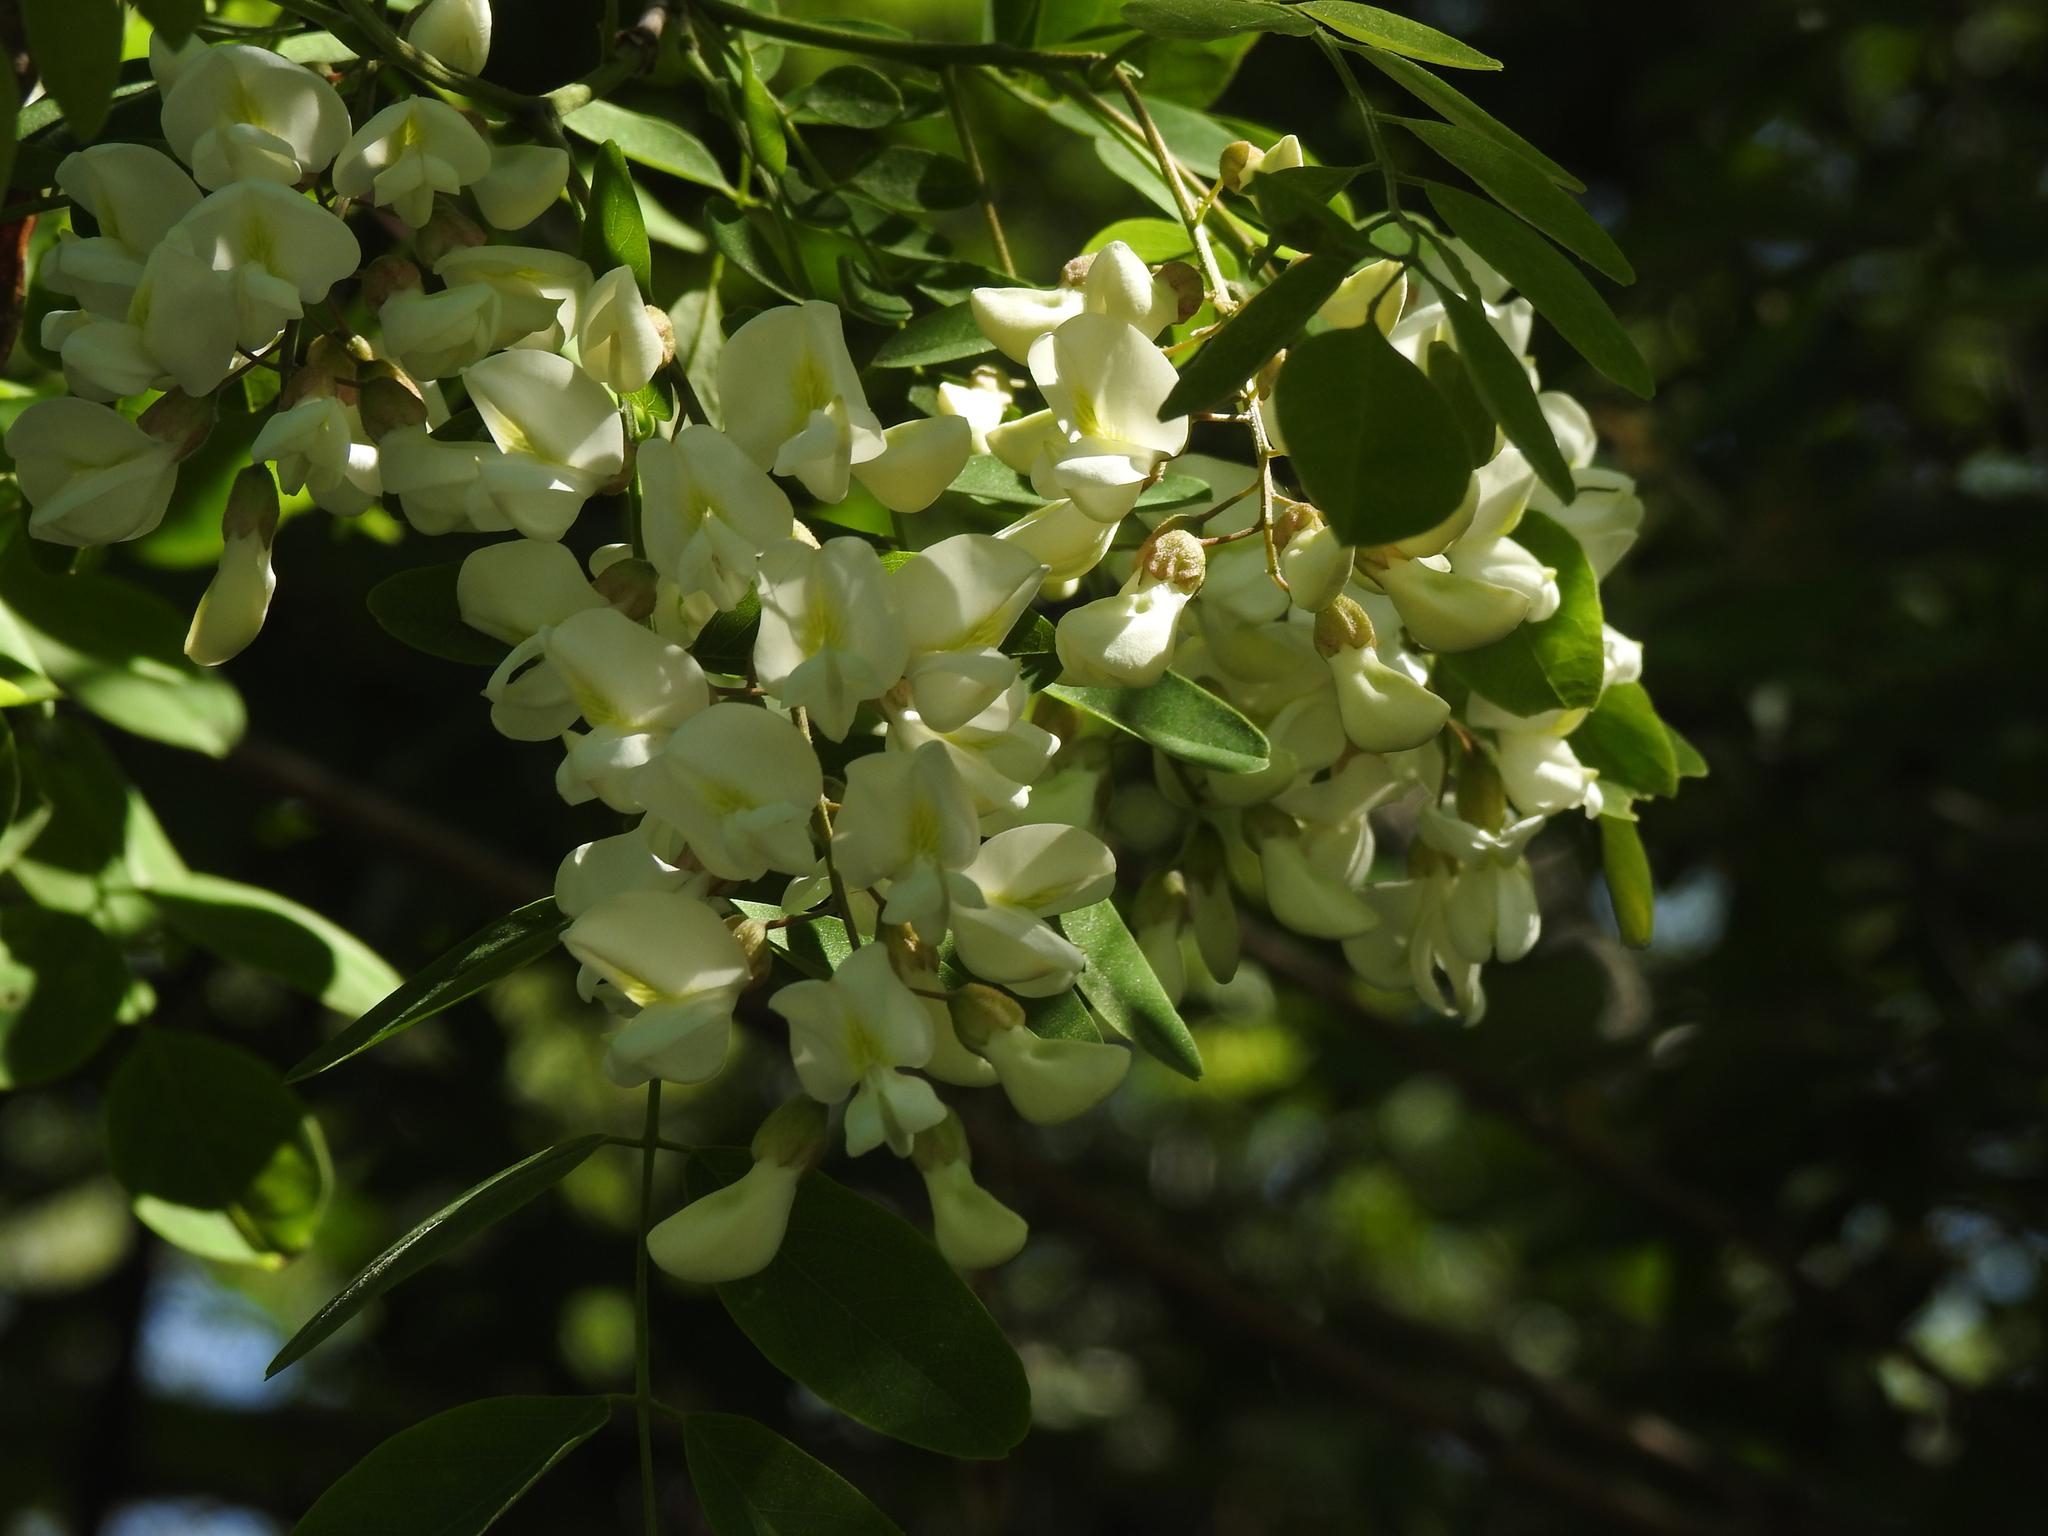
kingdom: Plantae
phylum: Tracheophyta
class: Magnoliopsida
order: Fabales
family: Fabaceae
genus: Robinia
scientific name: Robinia pseudoacacia
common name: Black locust
